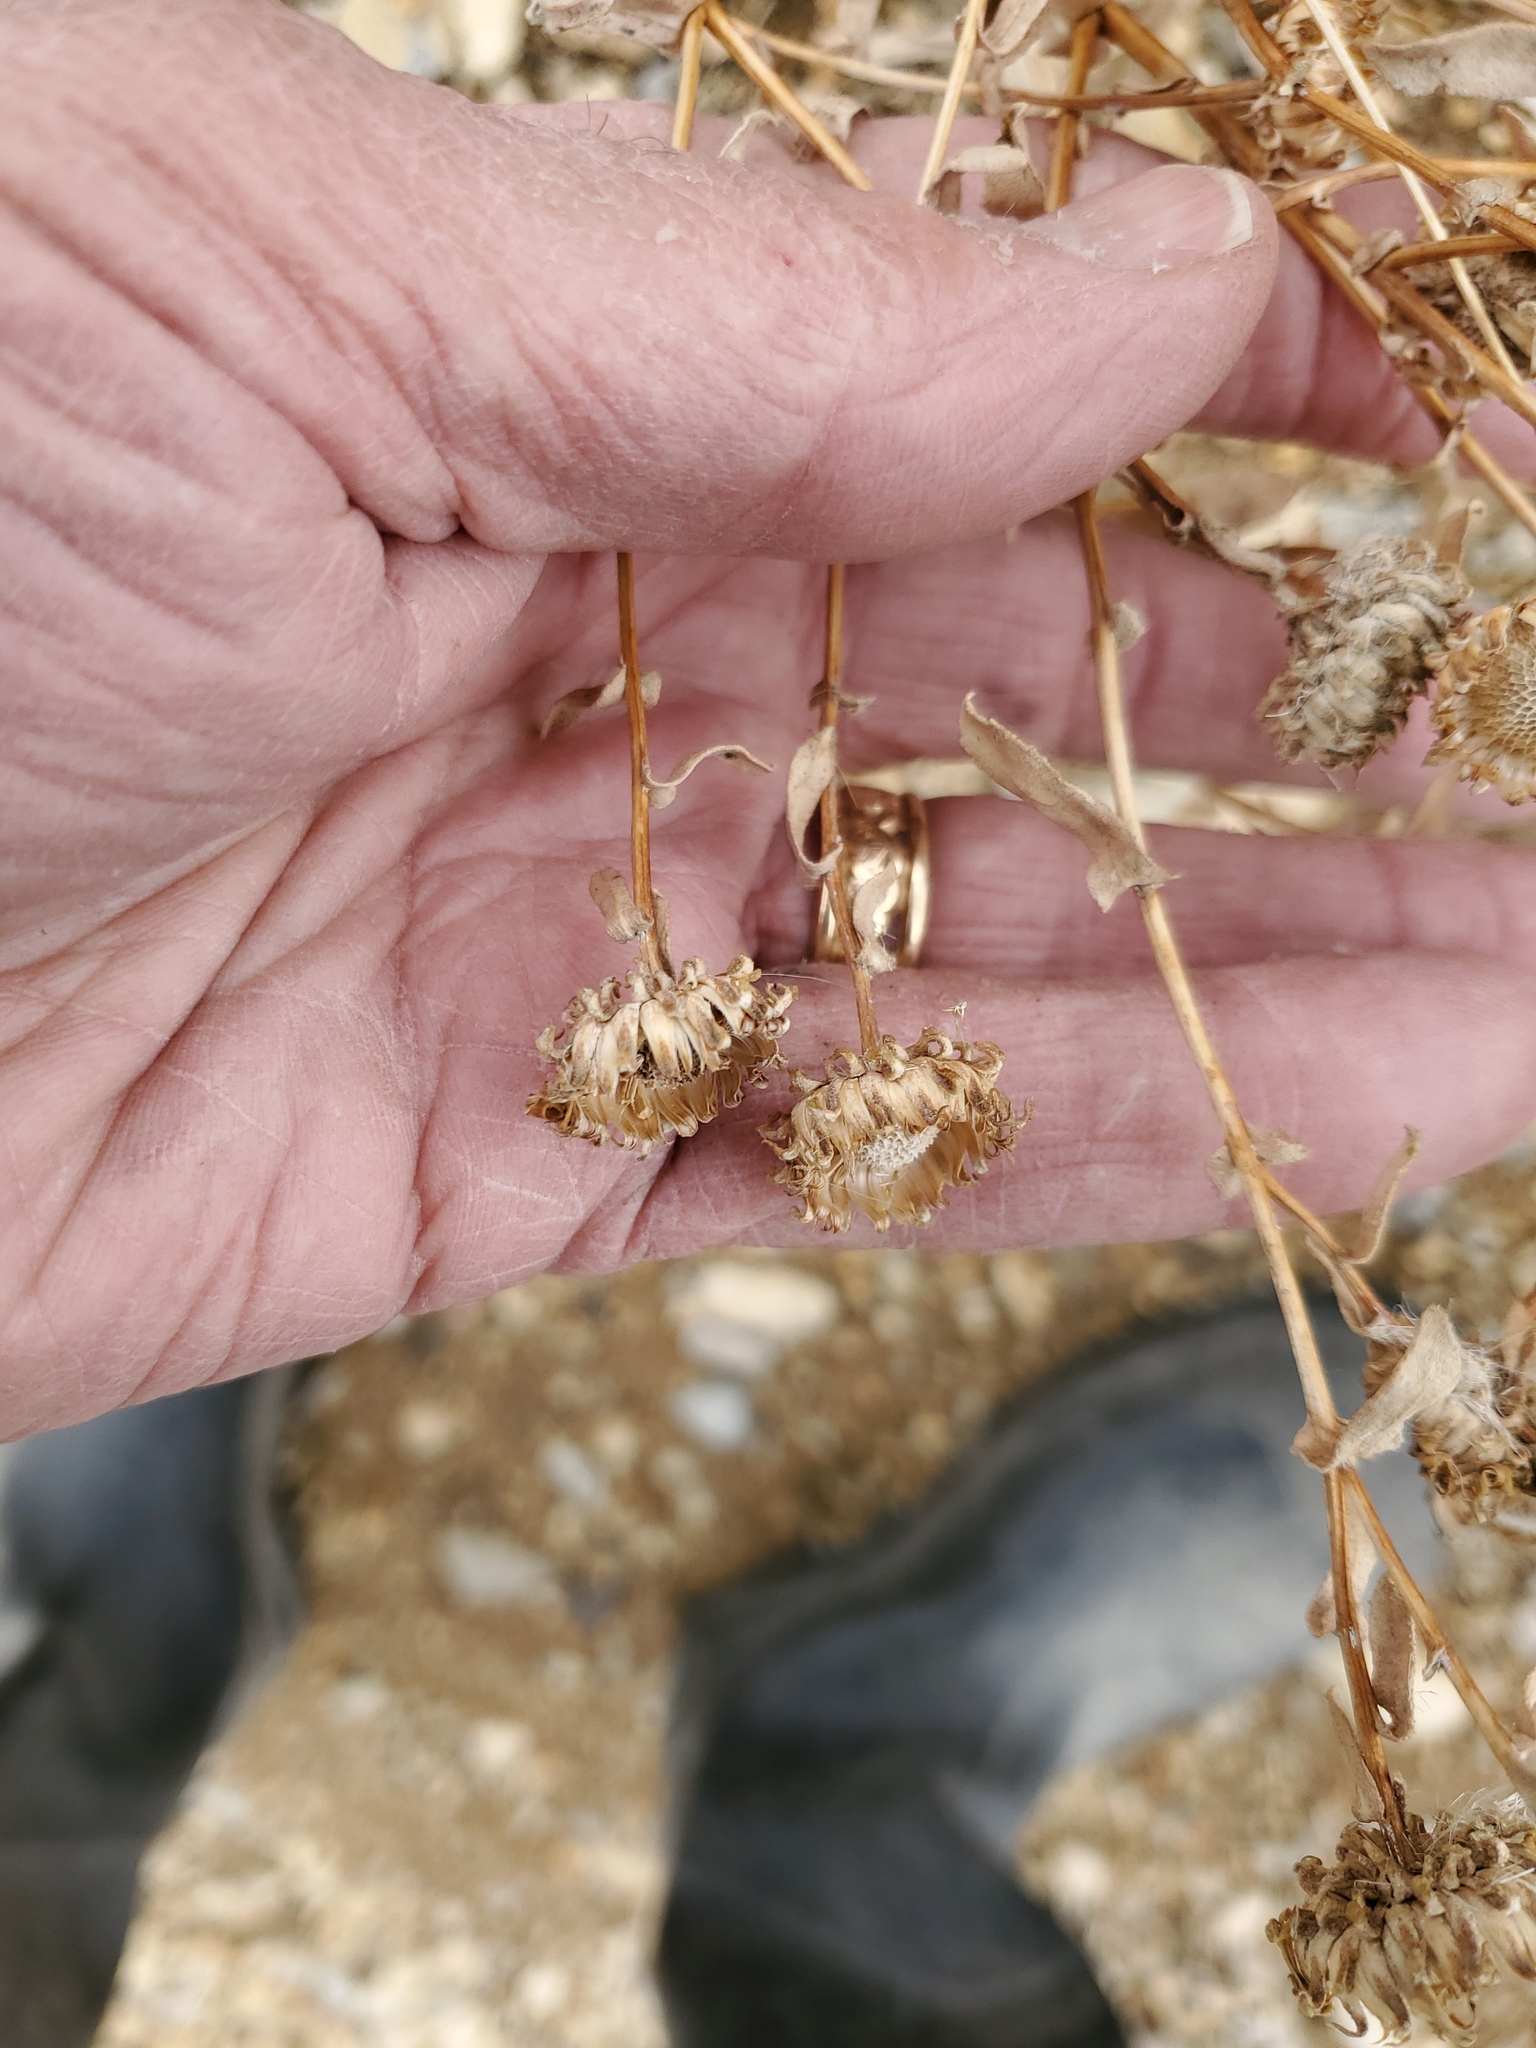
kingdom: Plantae
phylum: Tracheophyta
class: Magnoliopsida
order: Asterales
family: Asteraceae
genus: Grindelia
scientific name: Grindelia squarrosa
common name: Curly-cup gumweed
